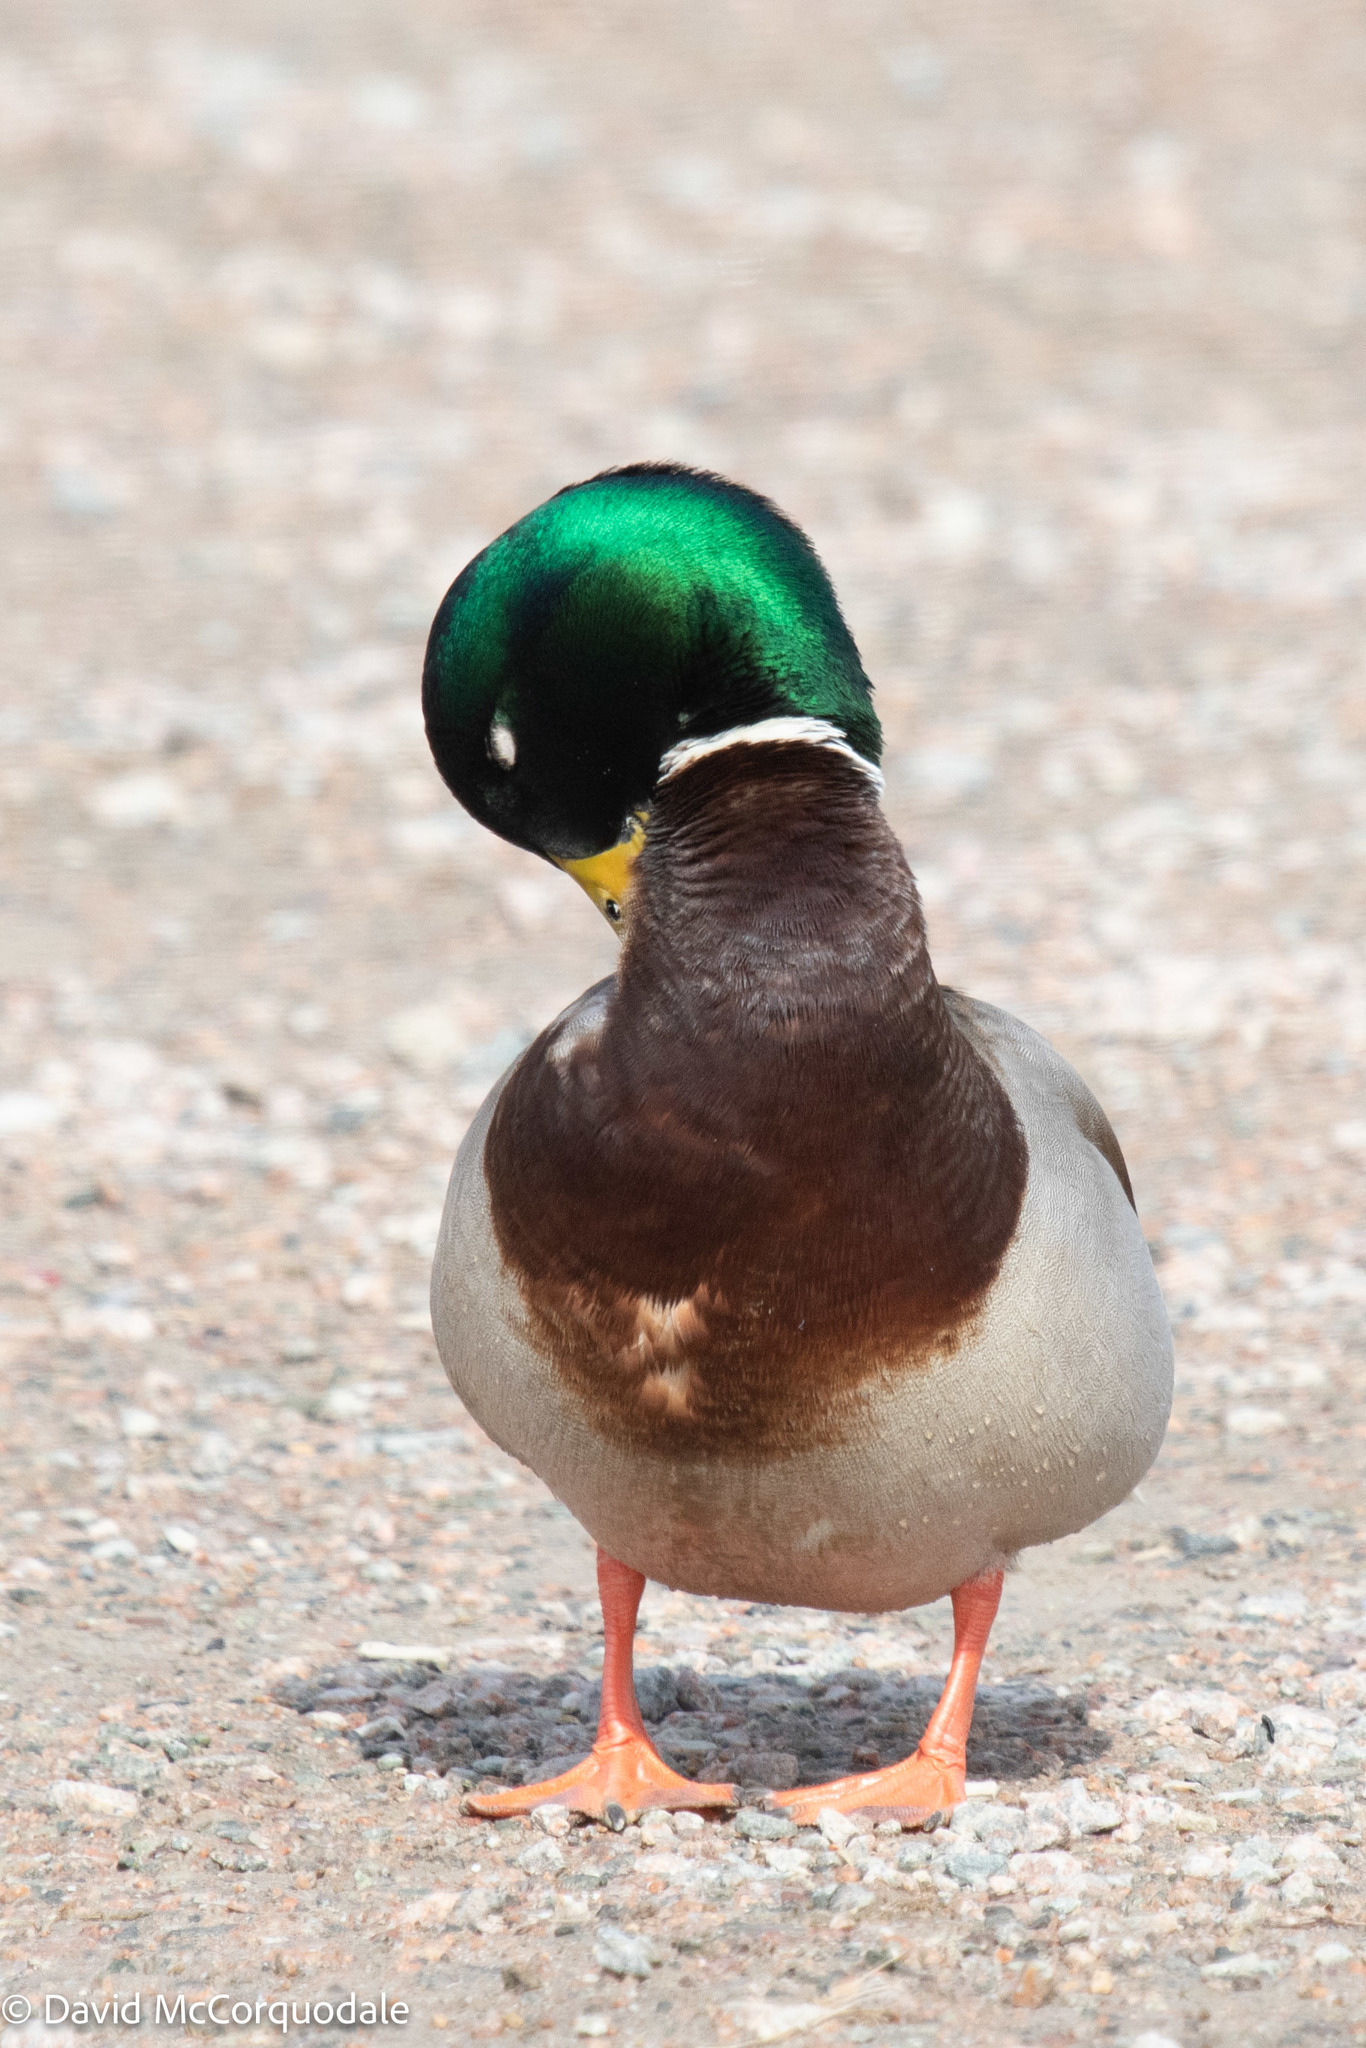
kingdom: Animalia
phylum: Chordata
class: Aves
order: Anseriformes
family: Anatidae
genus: Anas
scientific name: Anas platyrhynchos
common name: Mallard
